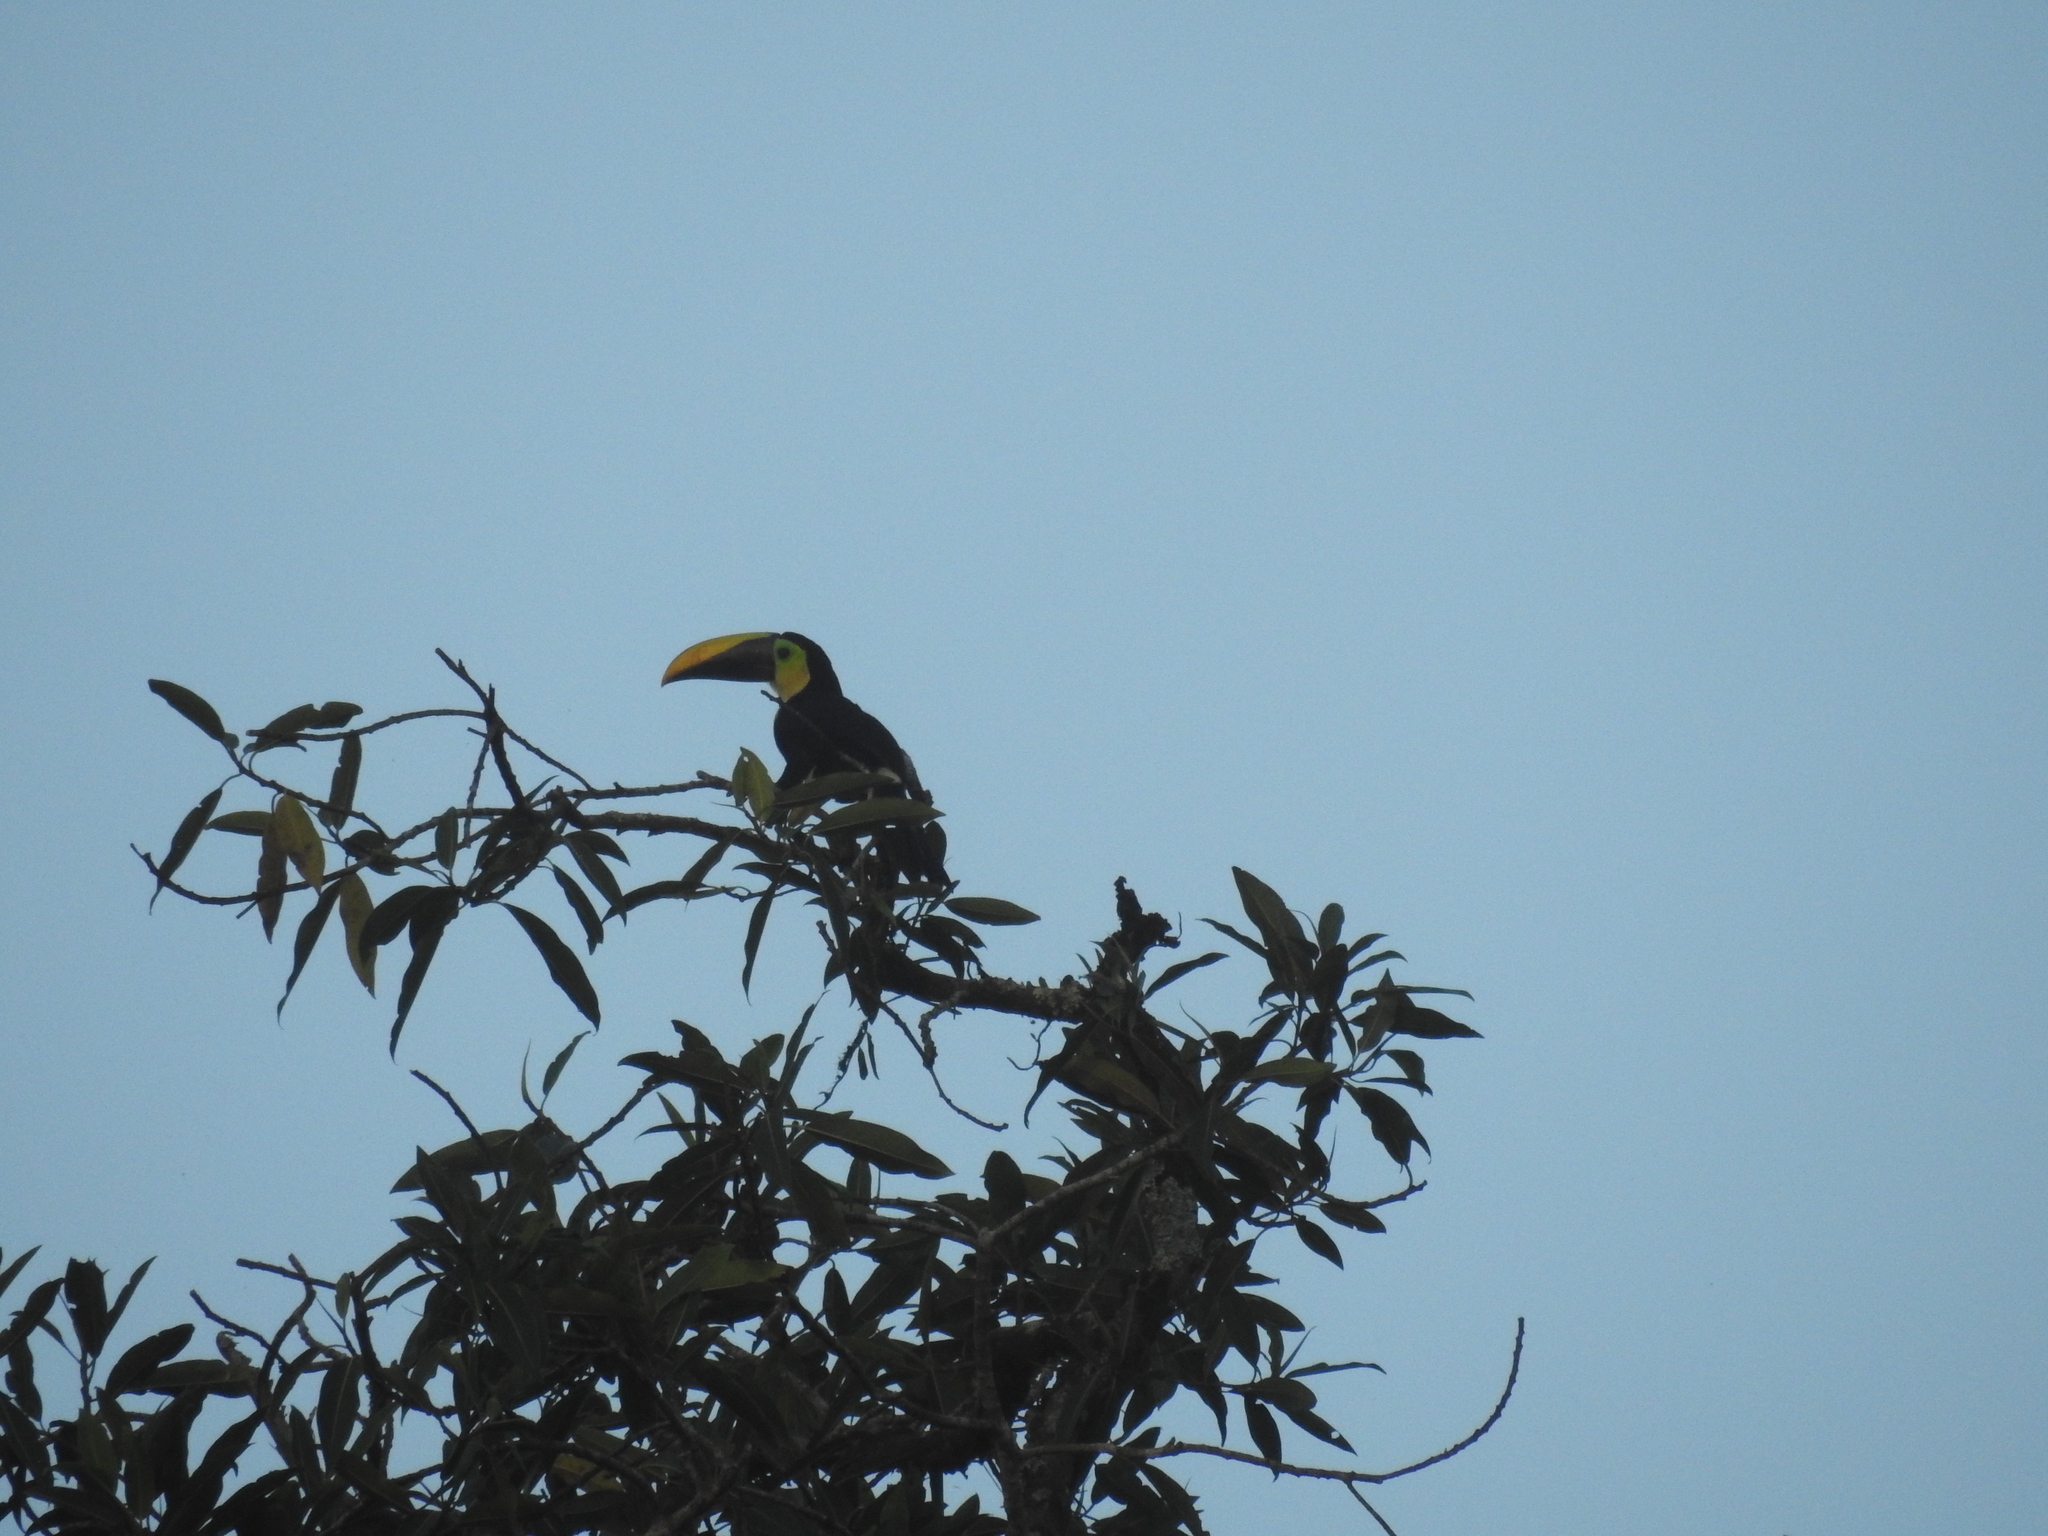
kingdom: Animalia
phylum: Chordata
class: Aves
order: Piciformes
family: Ramphastidae
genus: Ramphastos
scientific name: Ramphastos ambiguus
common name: Yellow-throated toucan
